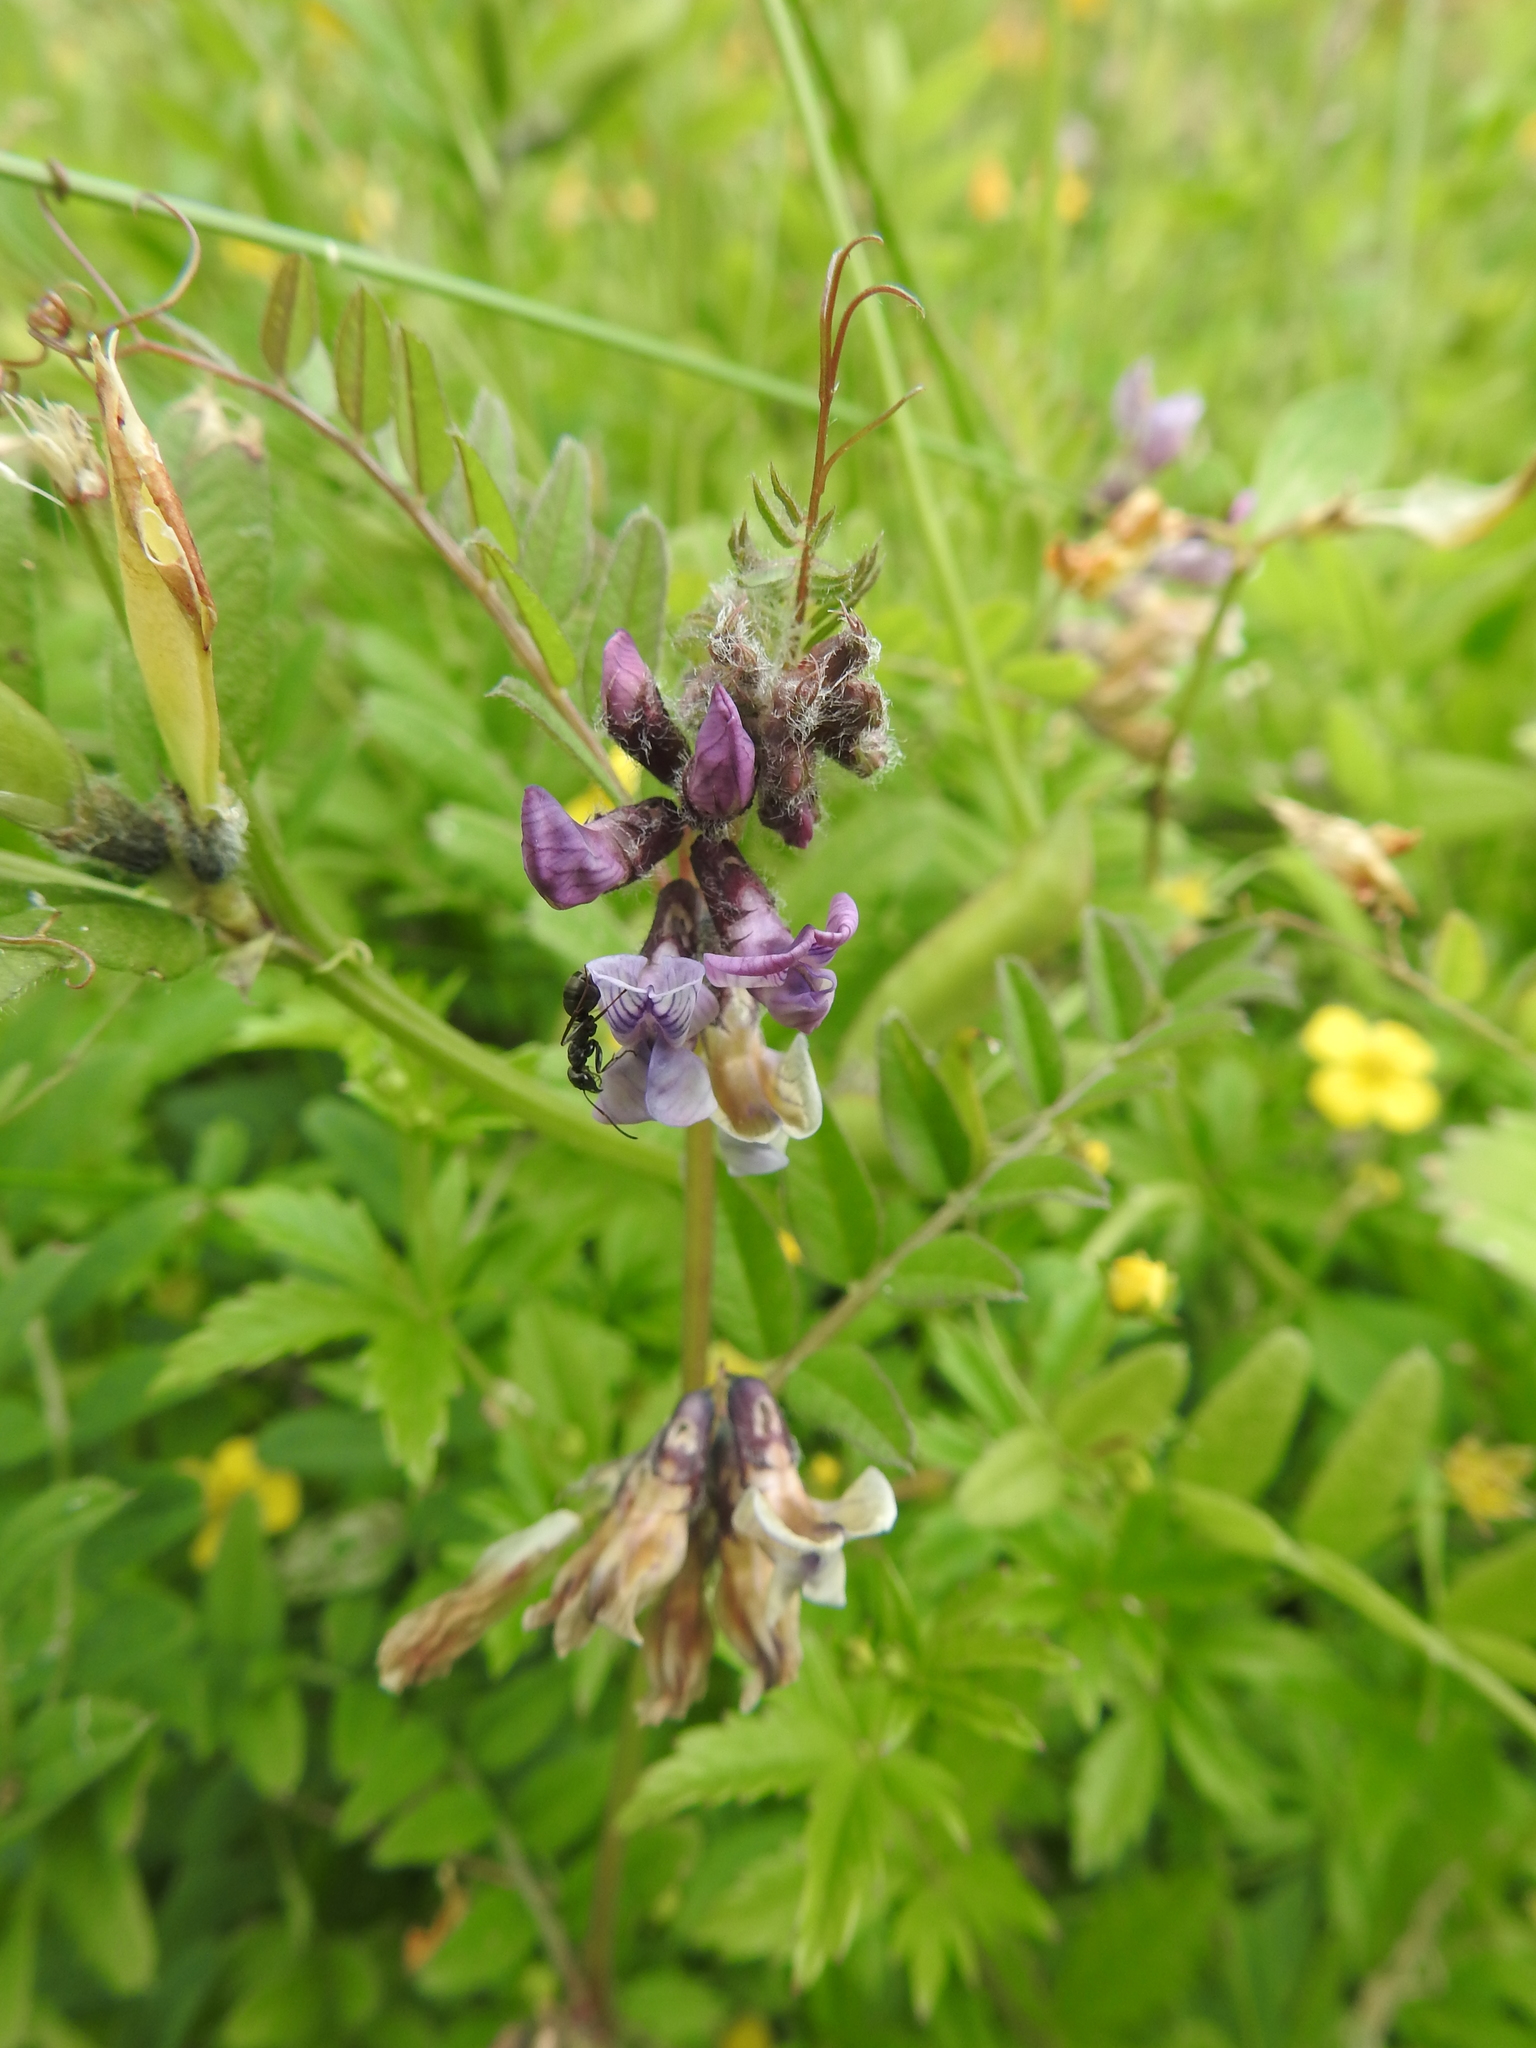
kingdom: Plantae
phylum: Tracheophyta
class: Magnoliopsida
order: Fabales
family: Fabaceae
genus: Vicia
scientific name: Vicia sepium
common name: Bush vetch
